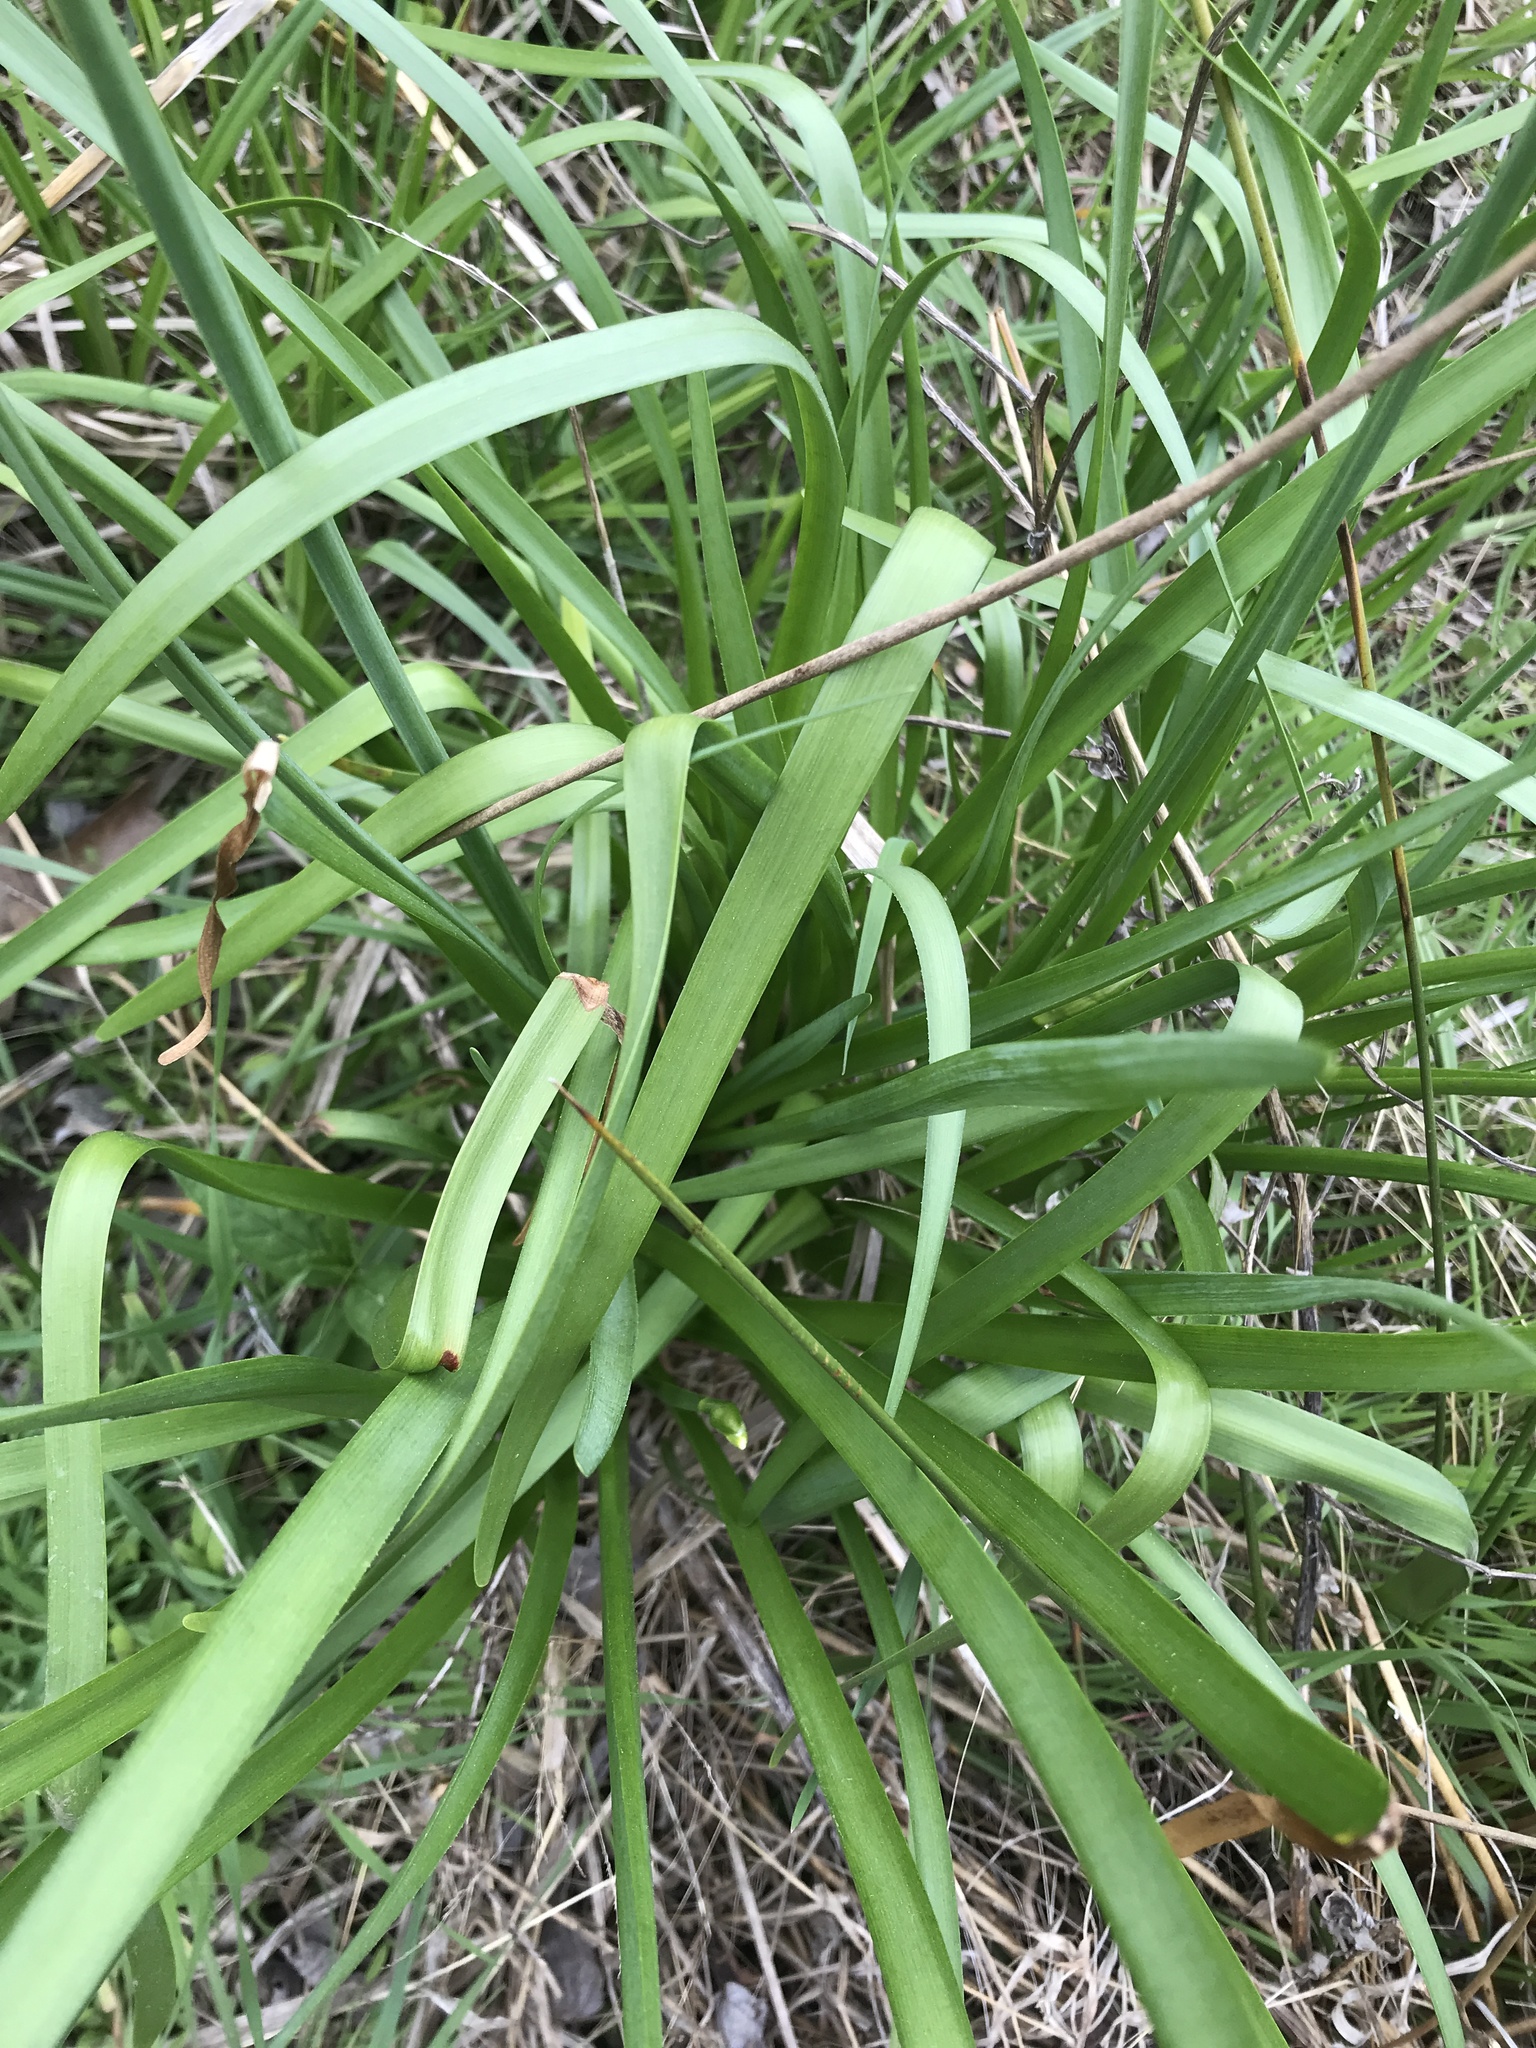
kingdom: Plantae
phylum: Tracheophyta
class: Liliopsida
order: Asparagales
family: Amaryllidaceae
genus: Leucojum
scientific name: Leucojum aestivum
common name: Summer snowflake
